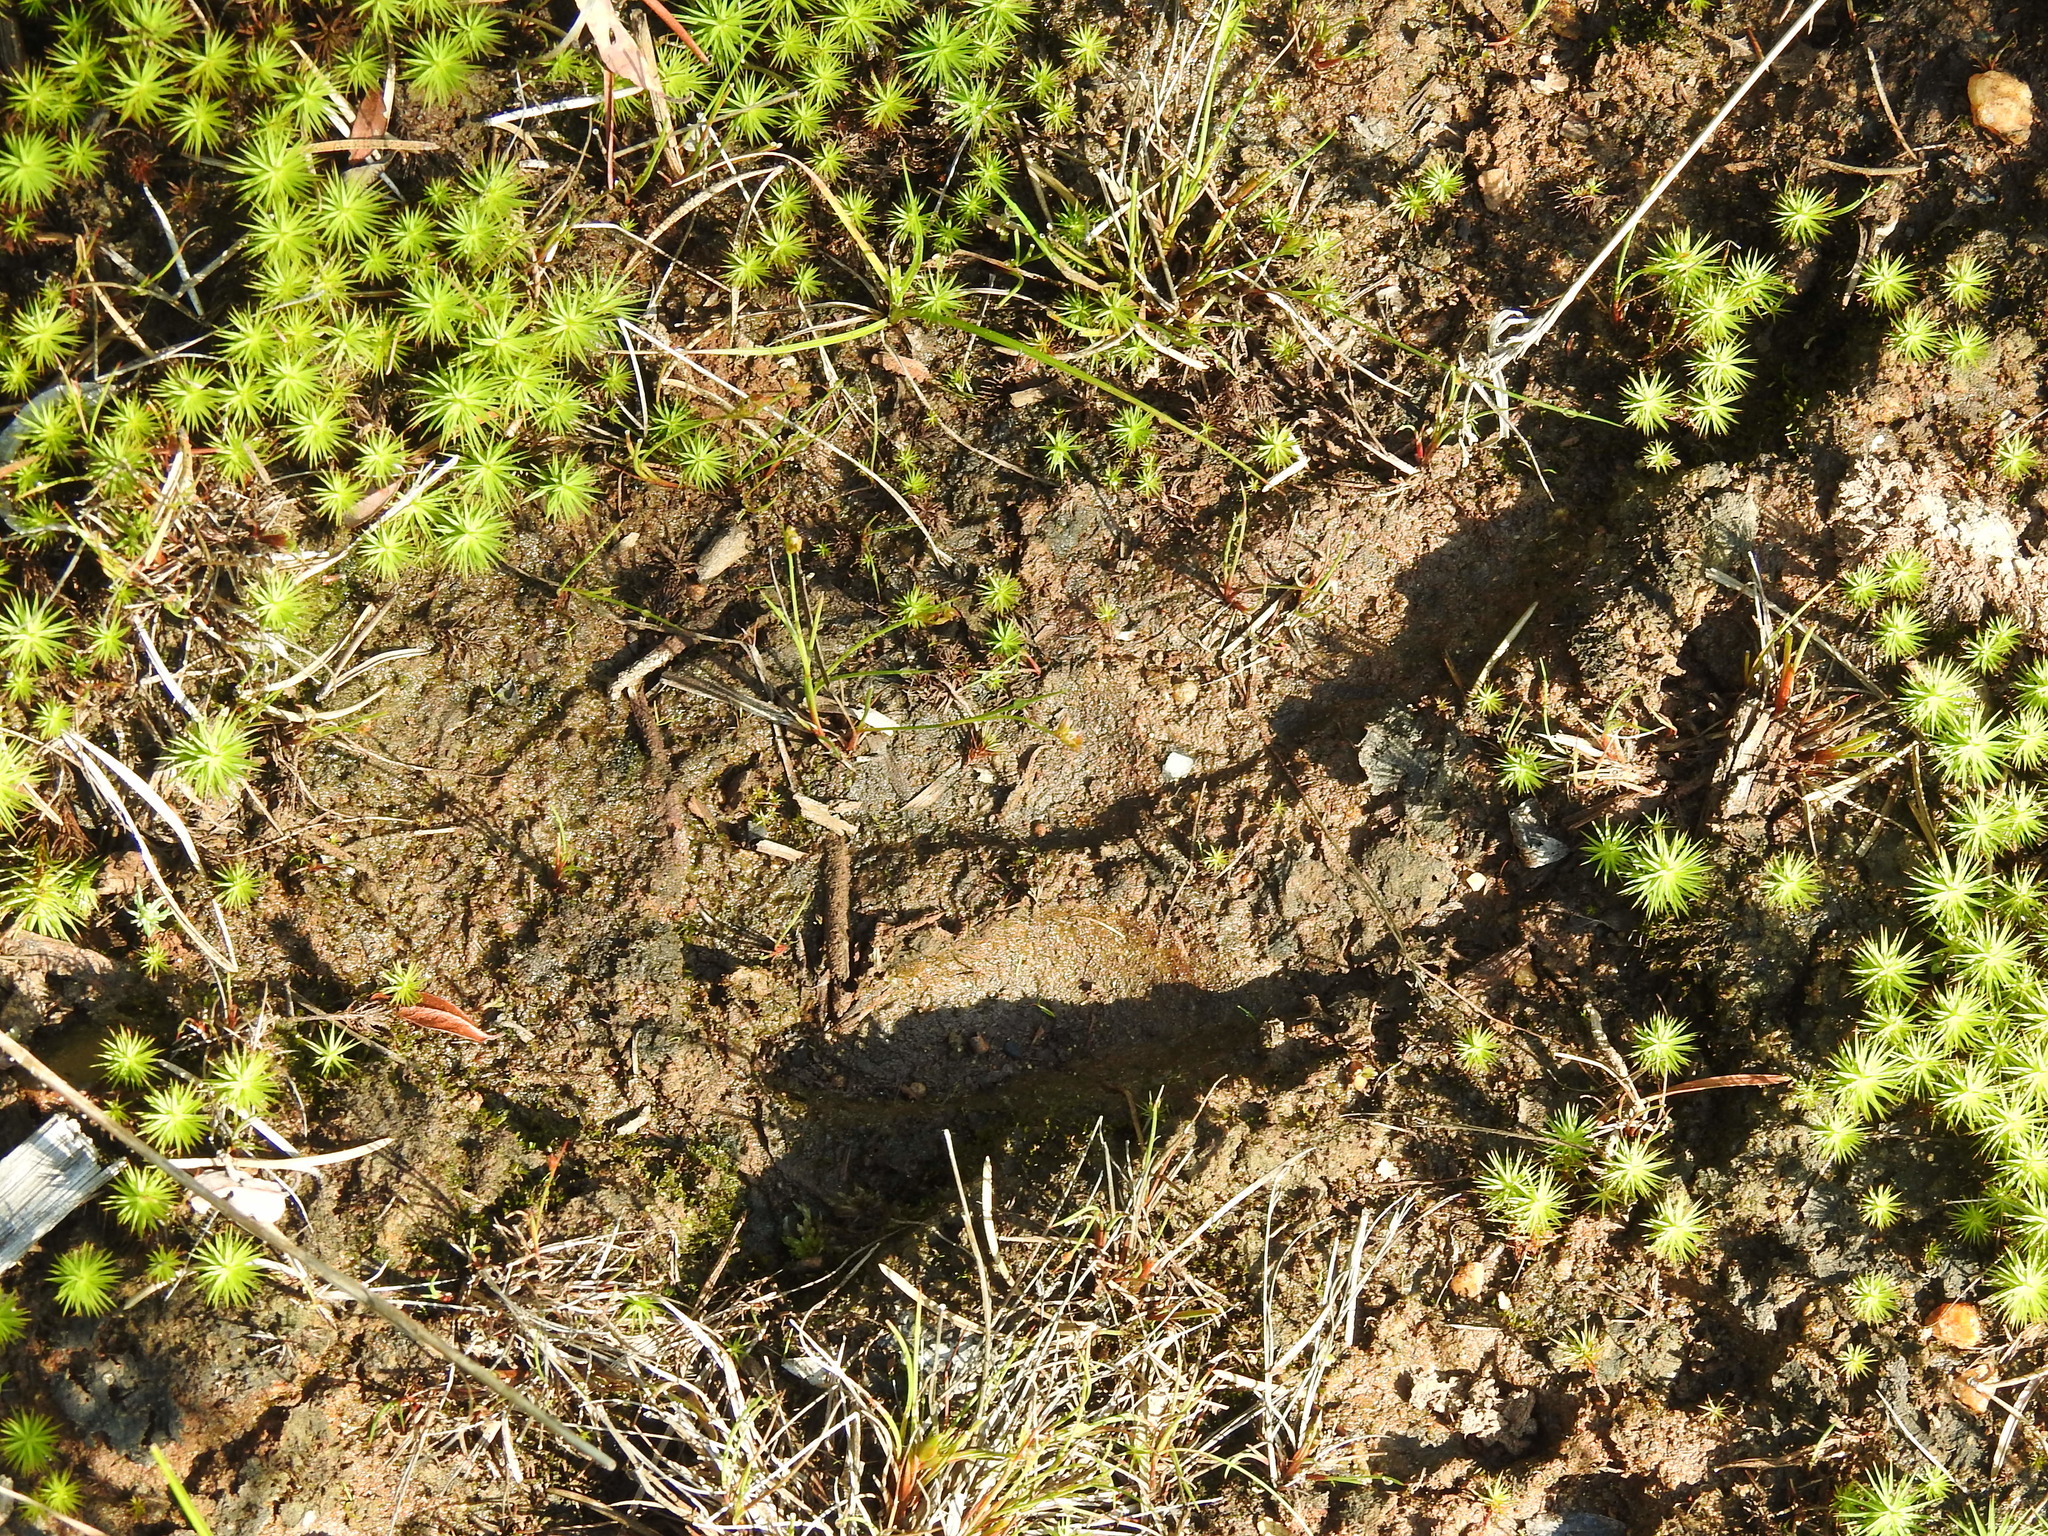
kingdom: Animalia
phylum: Chordata
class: Mammalia
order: Artiodactyla
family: Cervidae
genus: Alces
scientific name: Alces alces
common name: Moose
